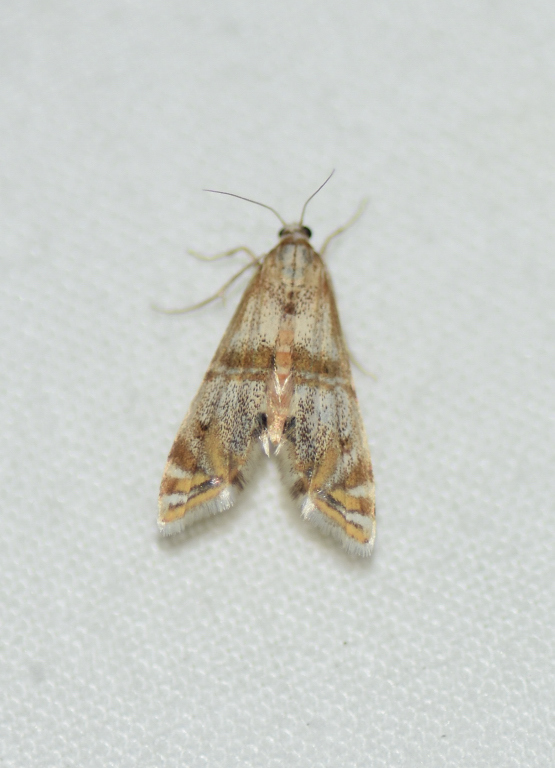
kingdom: Animalia
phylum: Arthropoda
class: Insecta
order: Lepidoptera
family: Crambidae
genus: Petrophila
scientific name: Petrophila bifascialis
